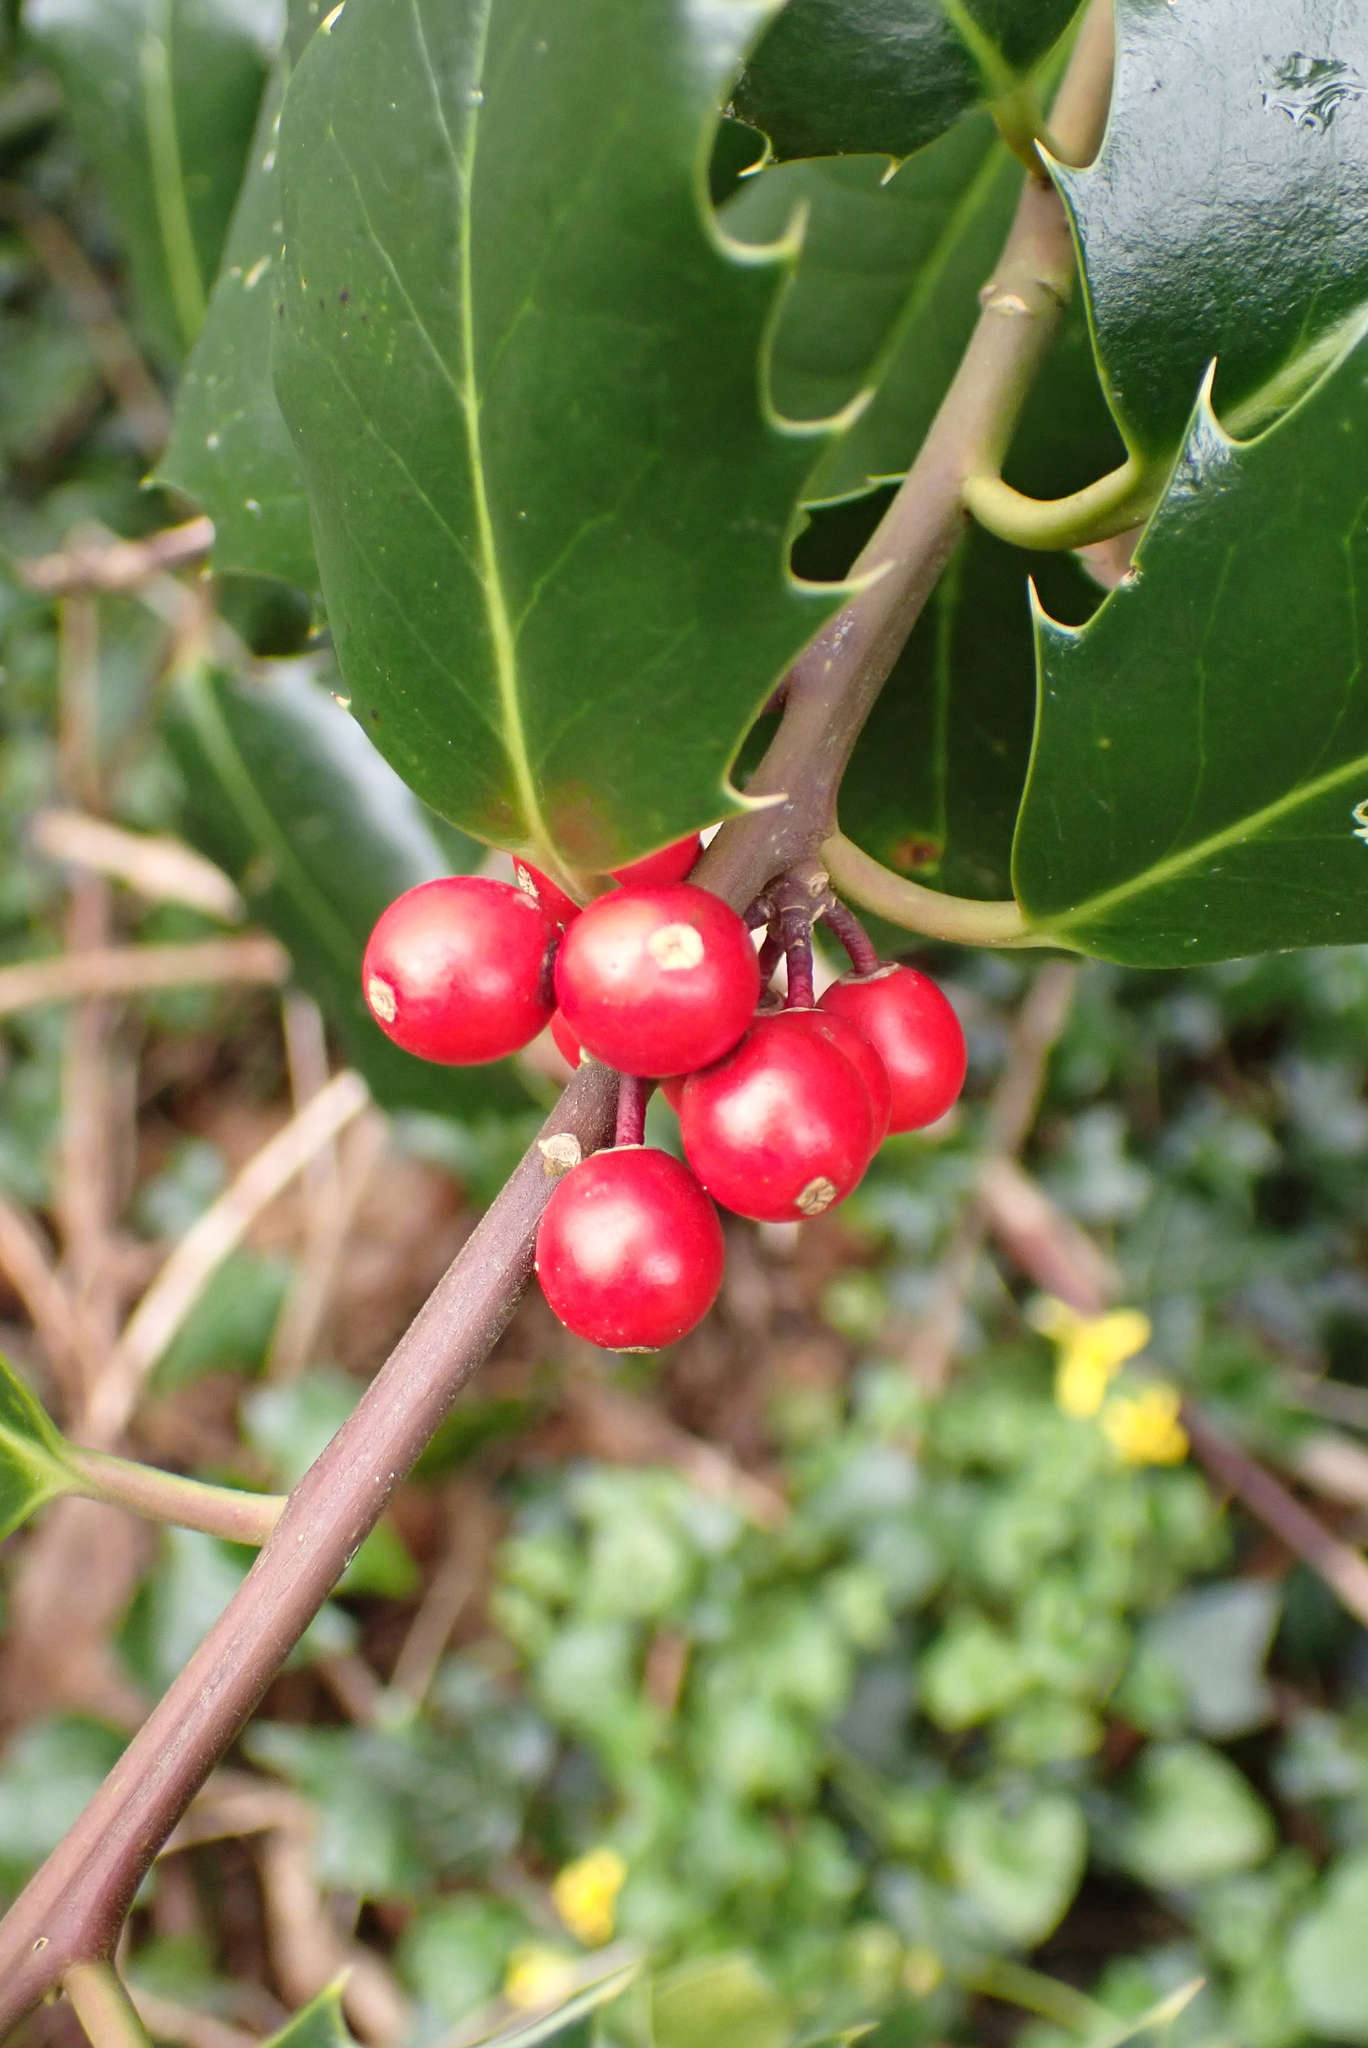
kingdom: Plantae
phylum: Tracheophyta
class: Magnoliopsida
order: Aquifoliales
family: Aquifoliaceae
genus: Ilex
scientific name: Ilex aquifolium
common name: English holly
